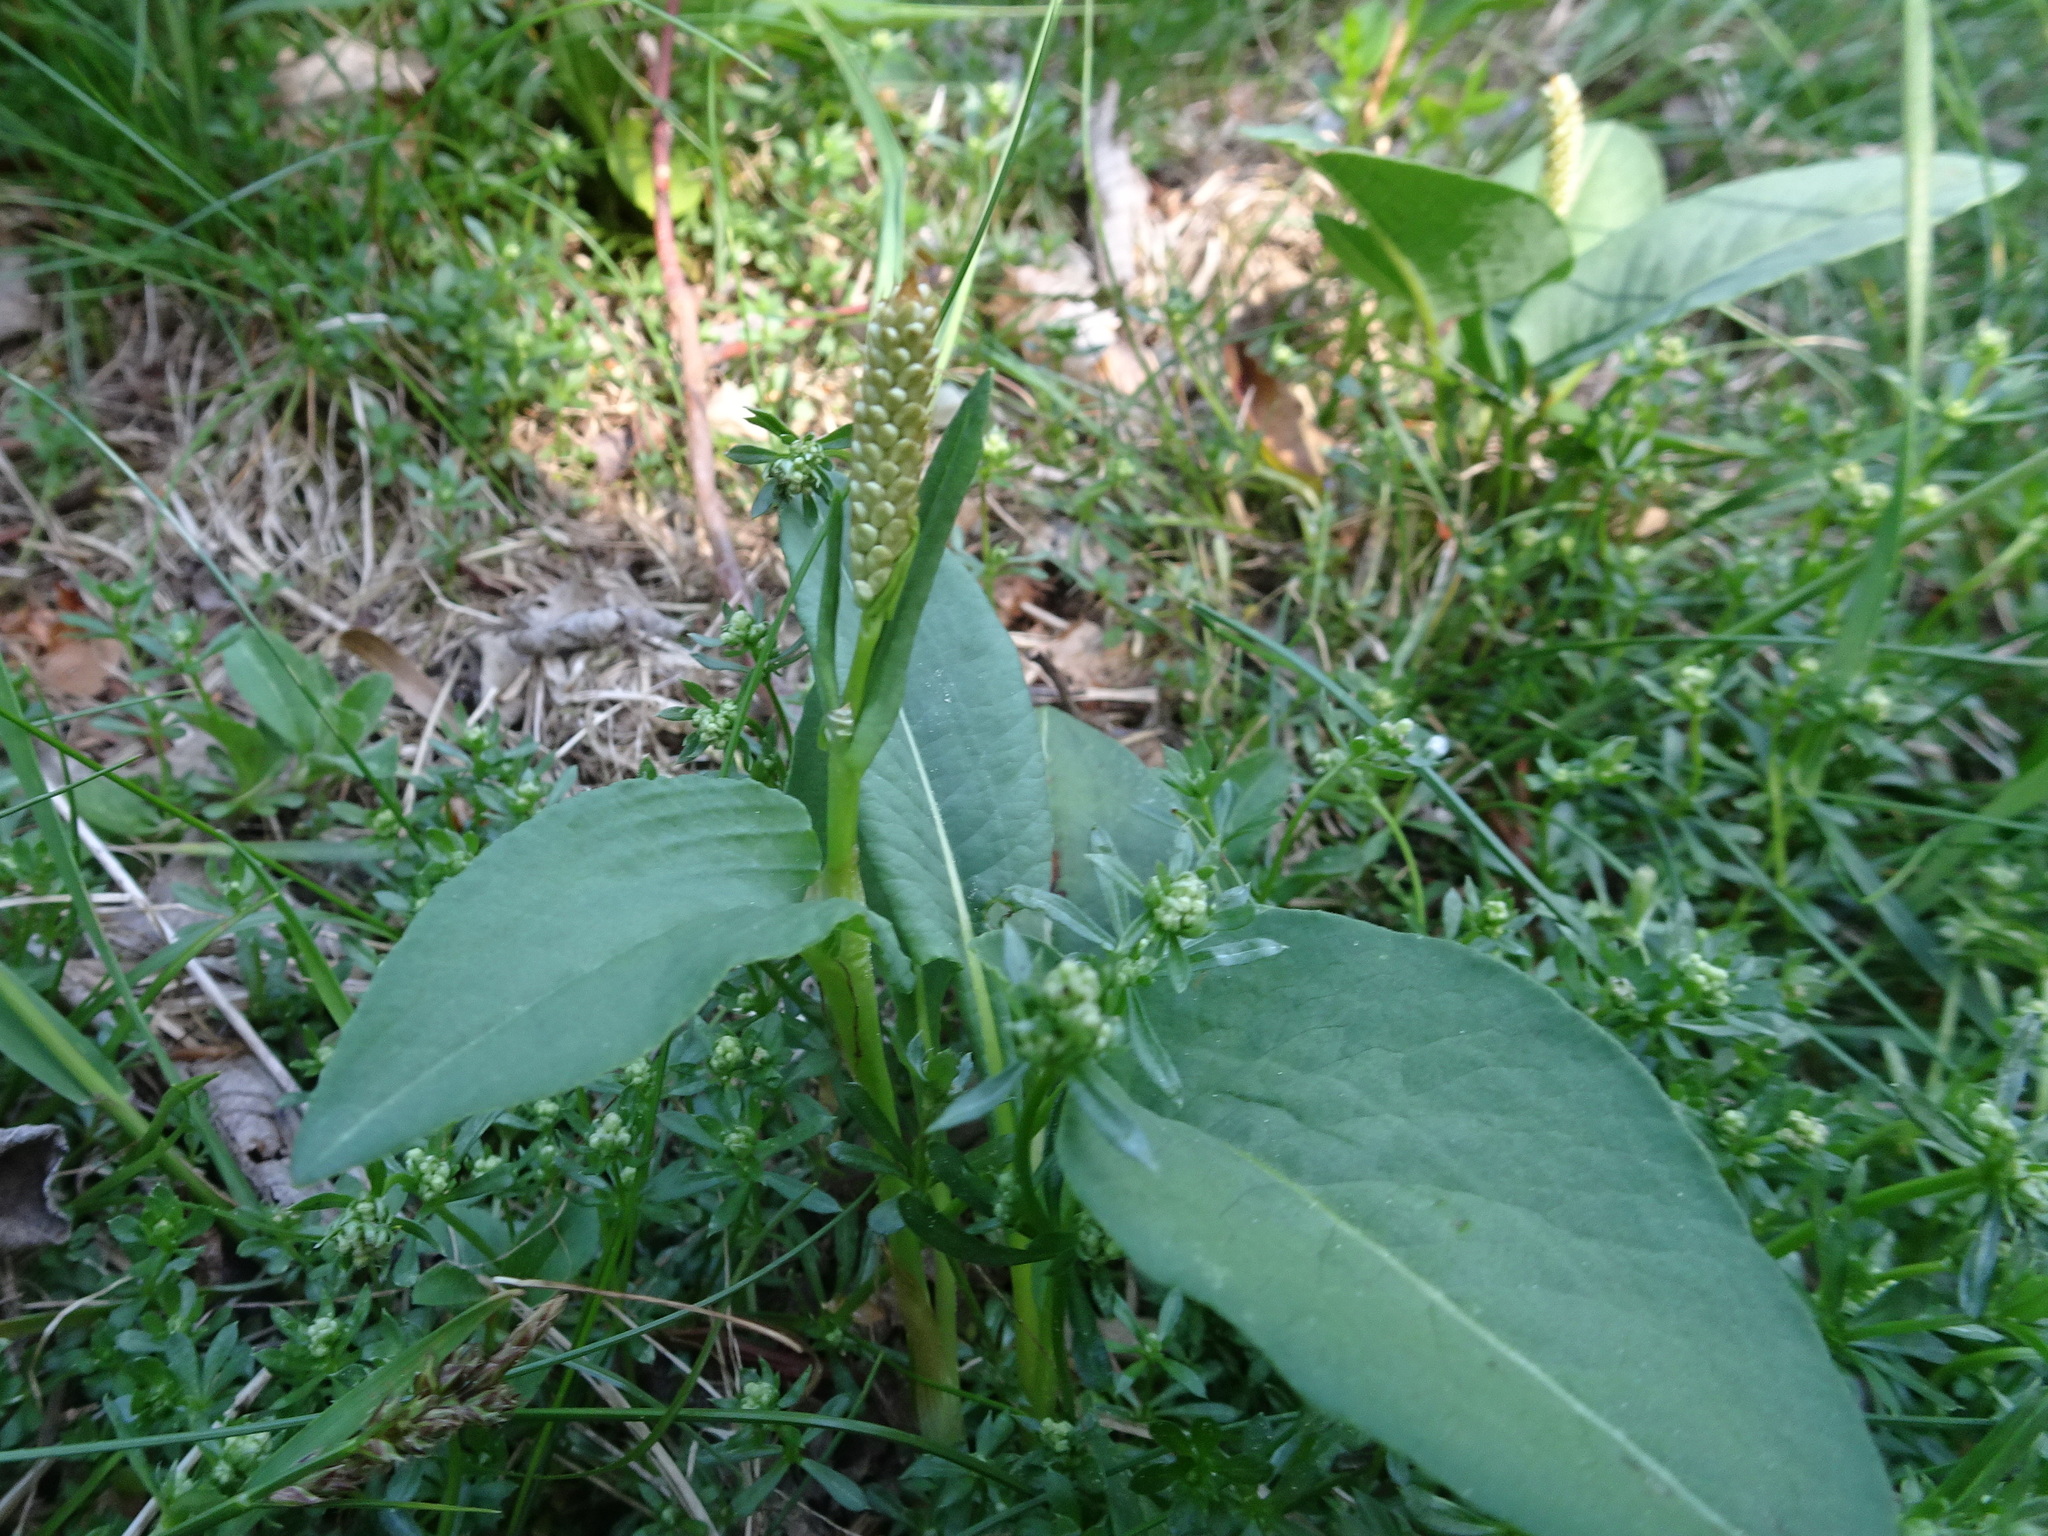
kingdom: Plantae
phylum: Tracheophyta
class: Magnoliopsida
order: Caryophyllales
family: Polygonaceae
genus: Bistorta
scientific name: Bistorta officinalis
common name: Common bistort
